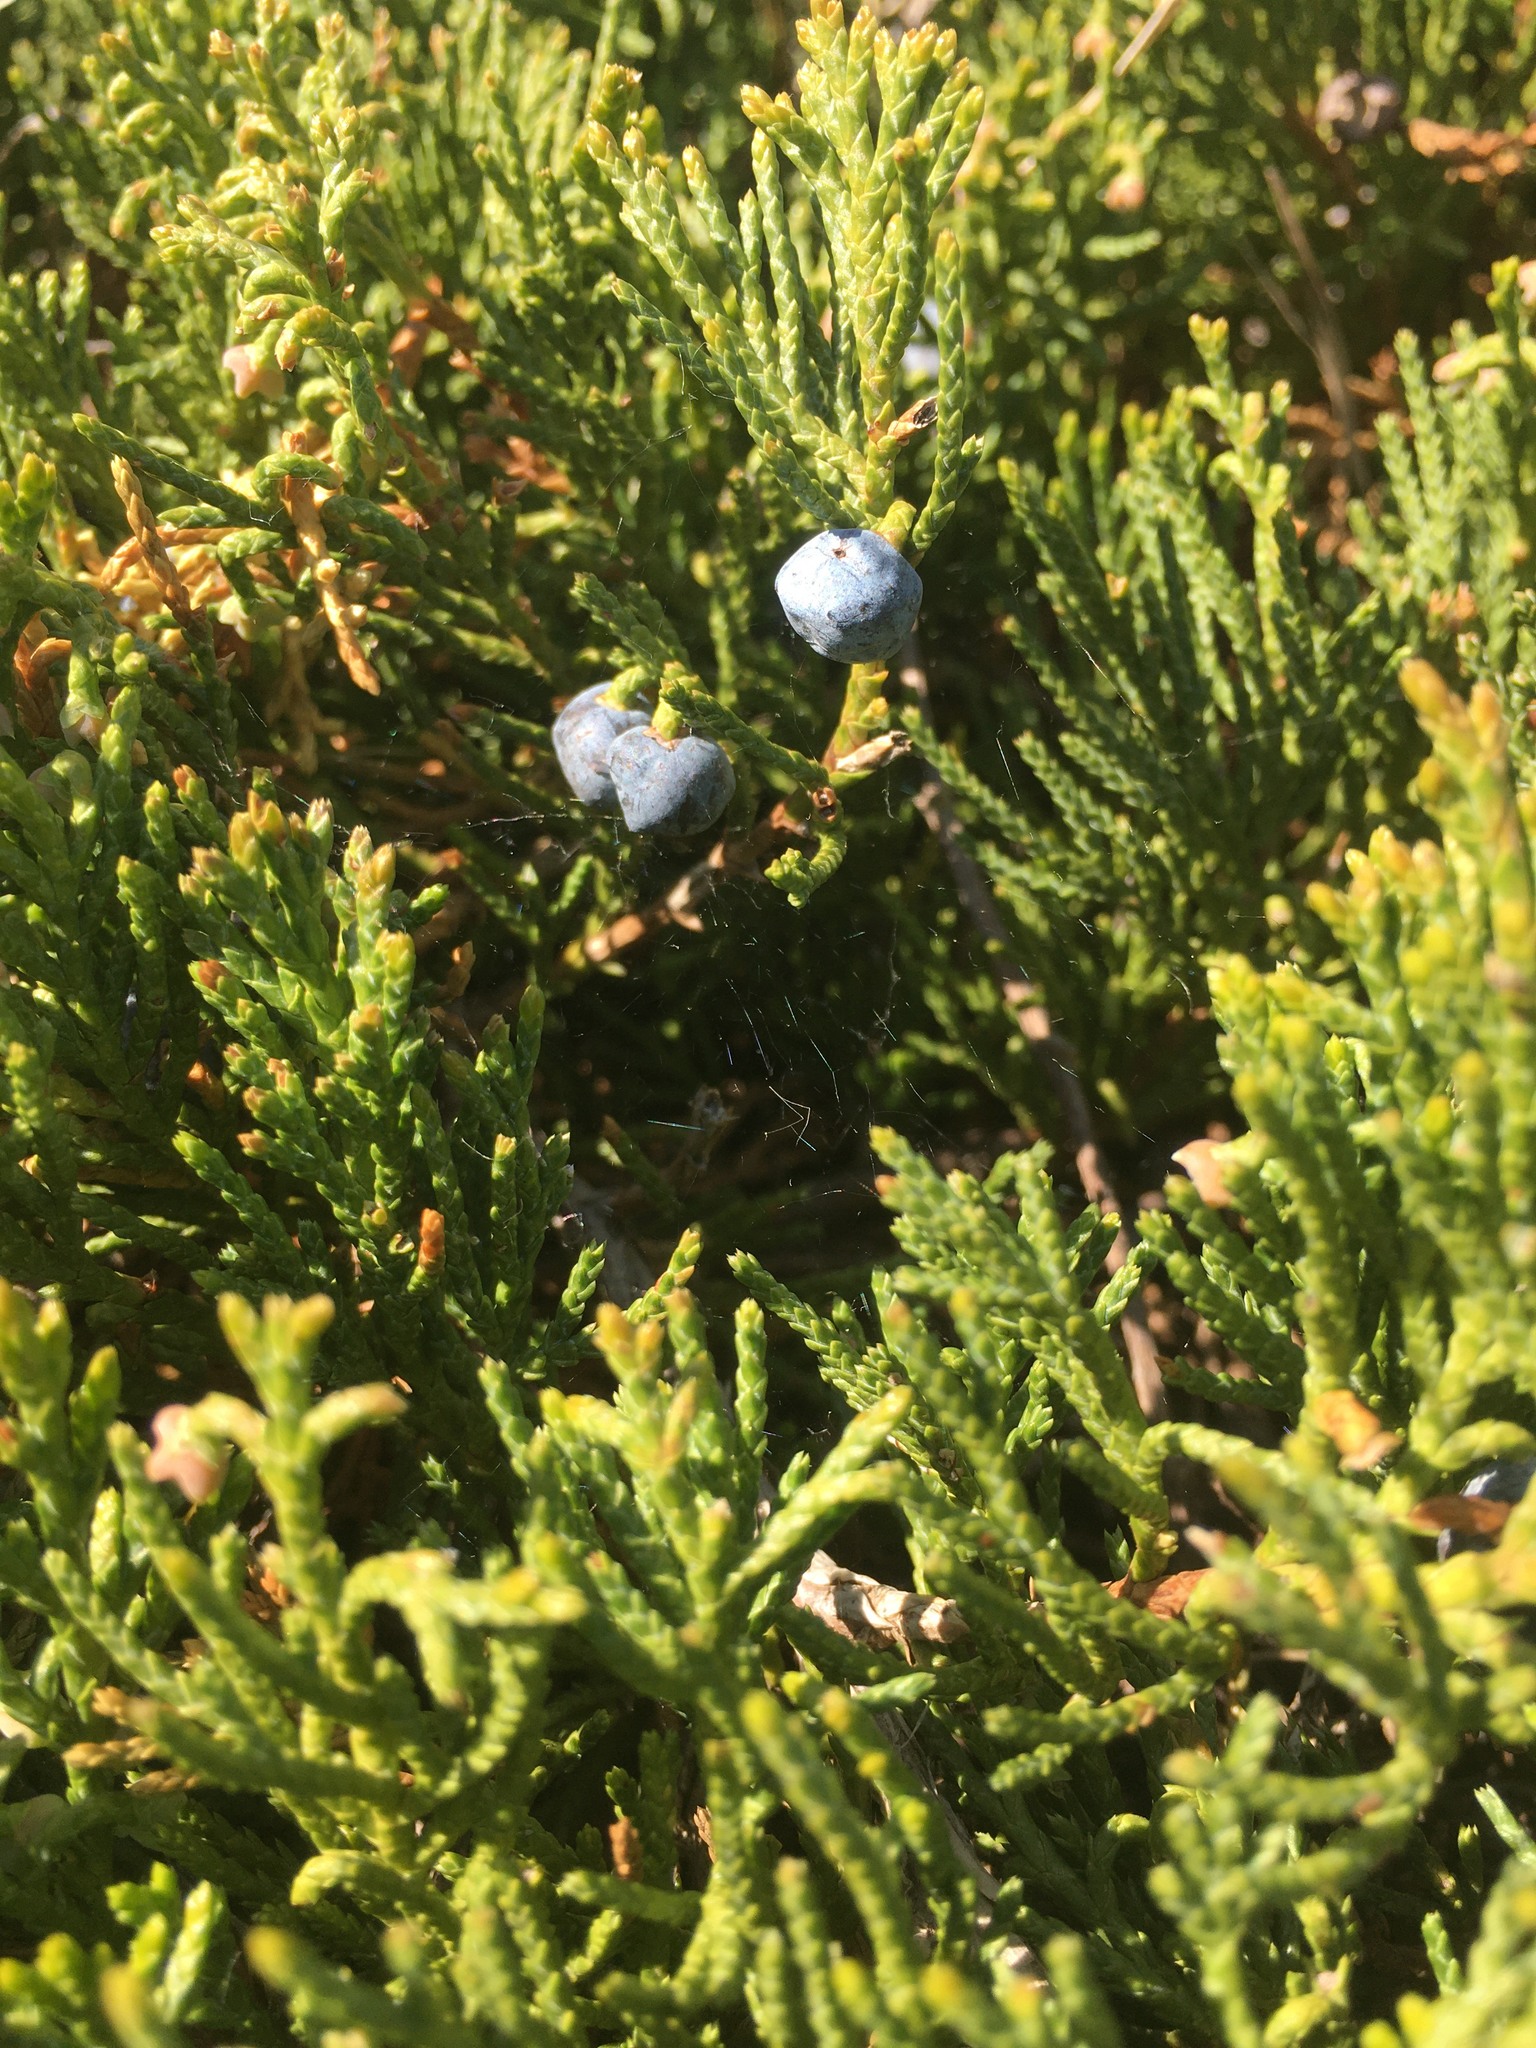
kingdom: Plantae
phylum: Tracheophyta
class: Pinopsida
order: Pinales
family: Cupressaceae
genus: Juniperus
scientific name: Juniperus horizontalis
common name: Creeping juniper
